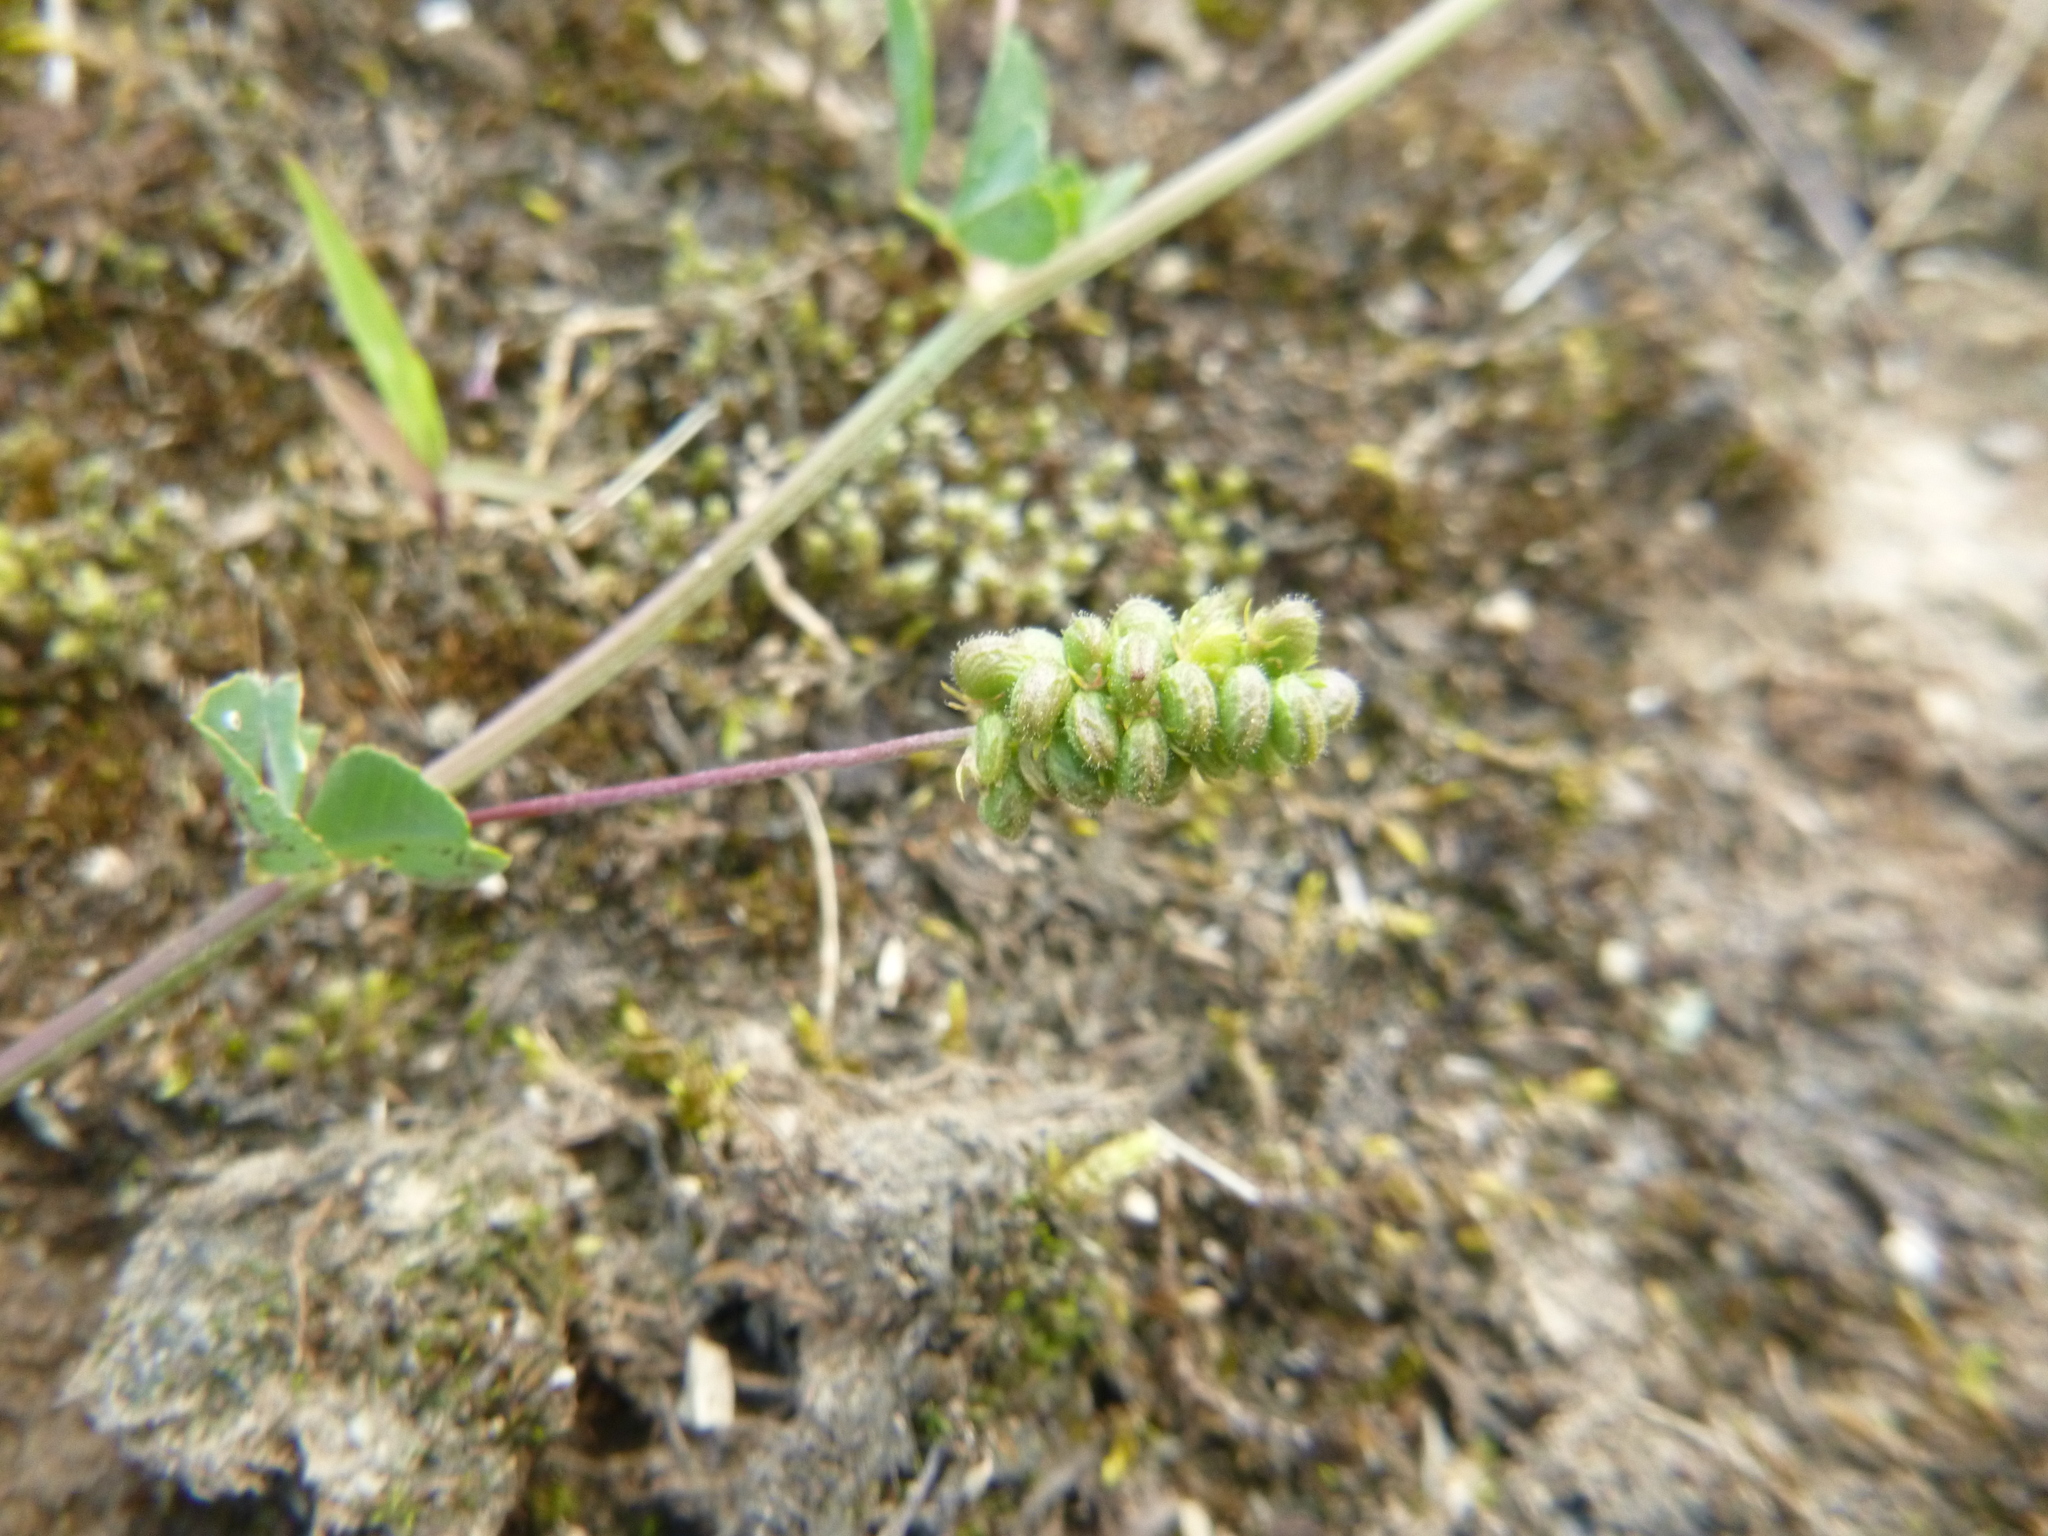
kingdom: Plantae
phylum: Tracheophyta
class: Magnoliopsida
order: Fabales
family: Fabaceae
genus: Medicago
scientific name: Medicago lupulina
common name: Black medick
